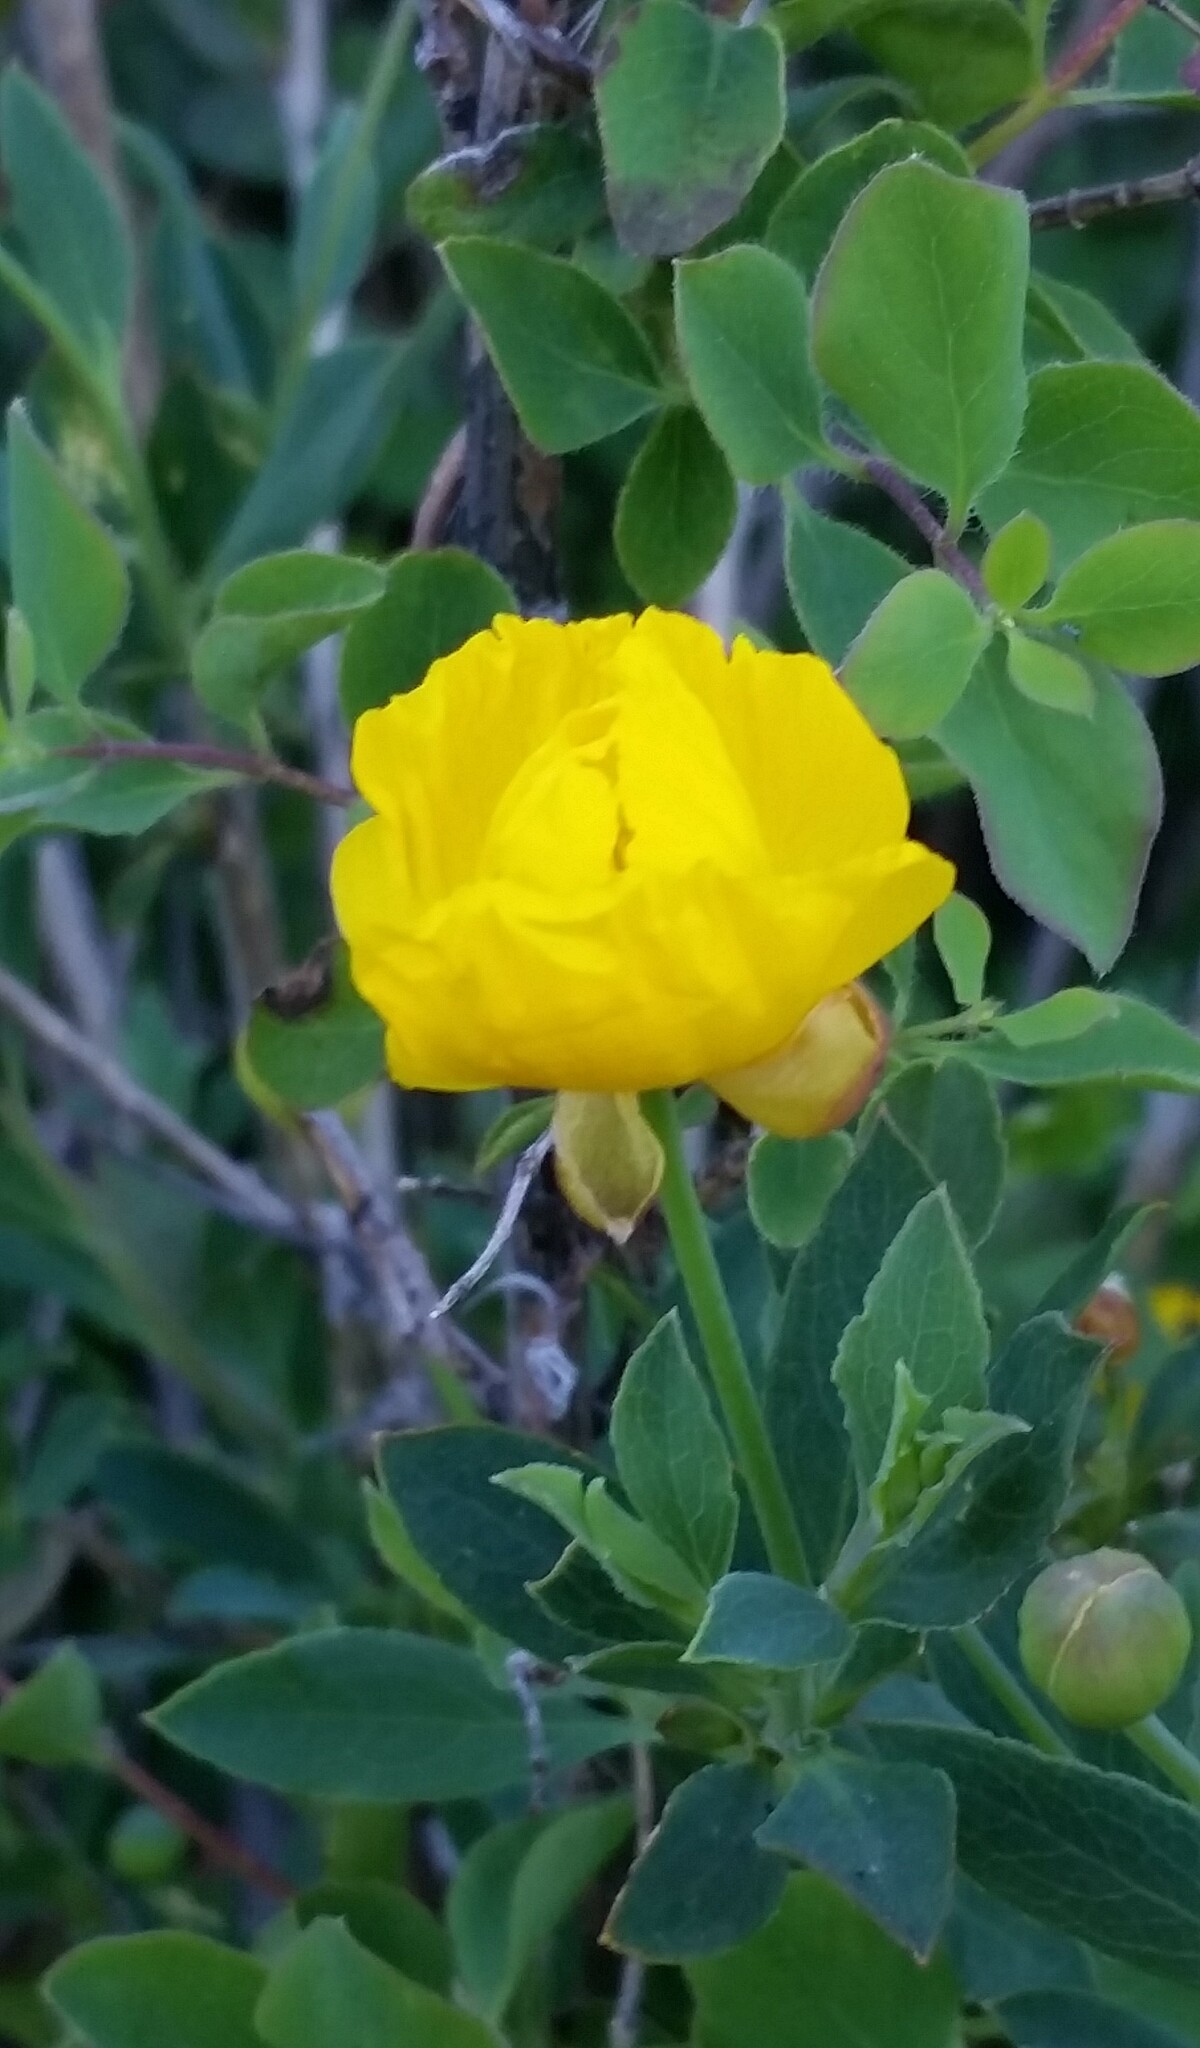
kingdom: Plantae
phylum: Tracheophyta
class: Magnoliopsida
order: Ranunculales
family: Papaveraceae
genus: Dendromecon
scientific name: Dendromecon rigida
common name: Tree poppy
